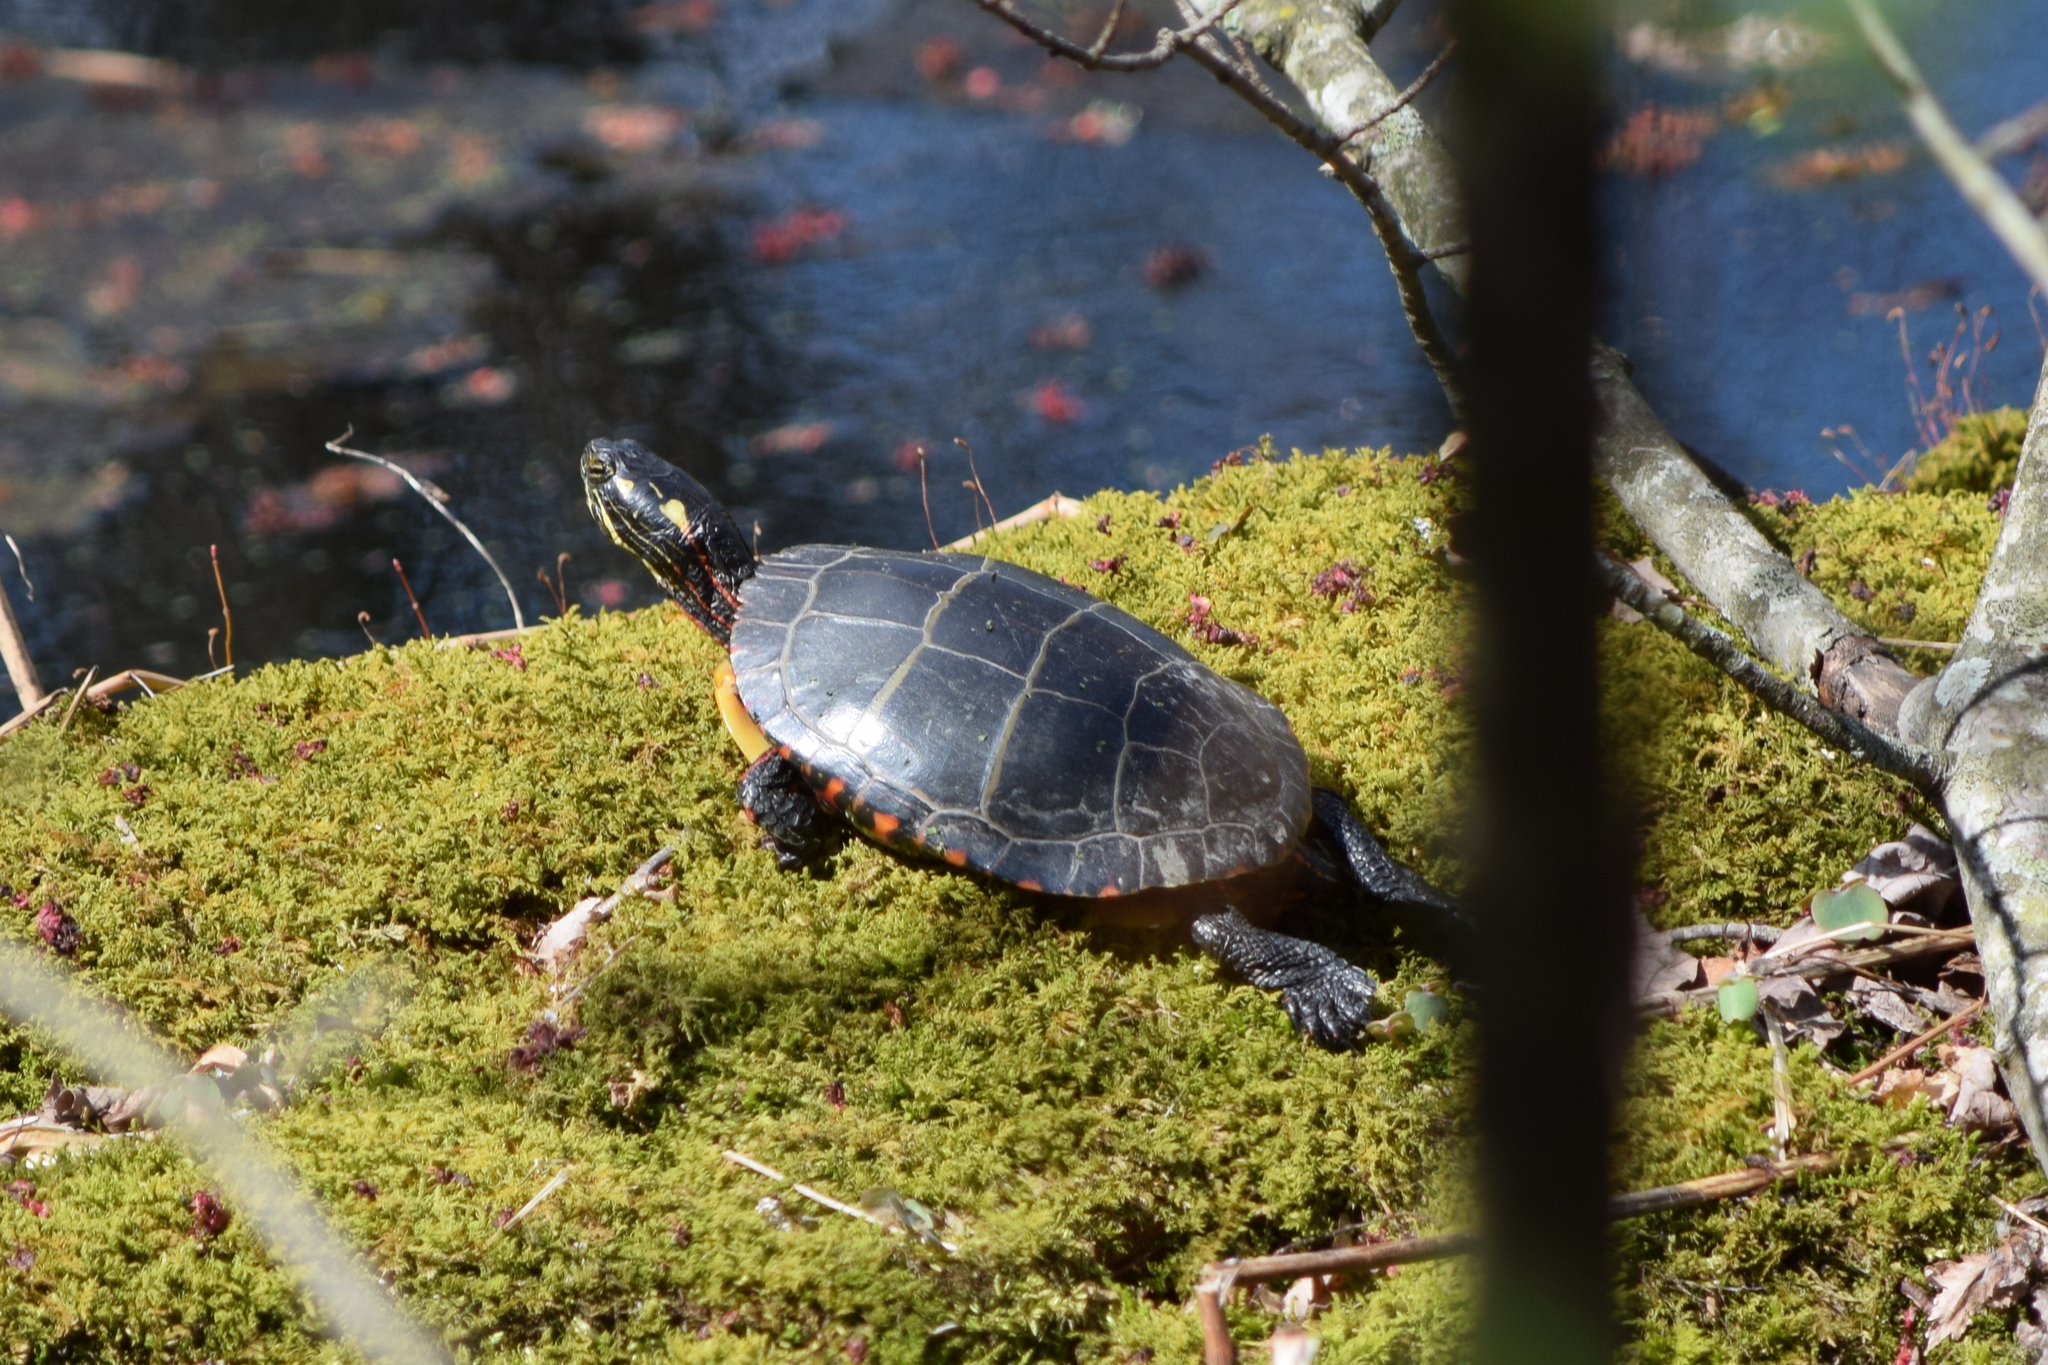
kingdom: Animalia
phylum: Chordata
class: Testudines
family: Emydidae
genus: Chrysemys
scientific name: Chrysemys picta
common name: Painted turtle
